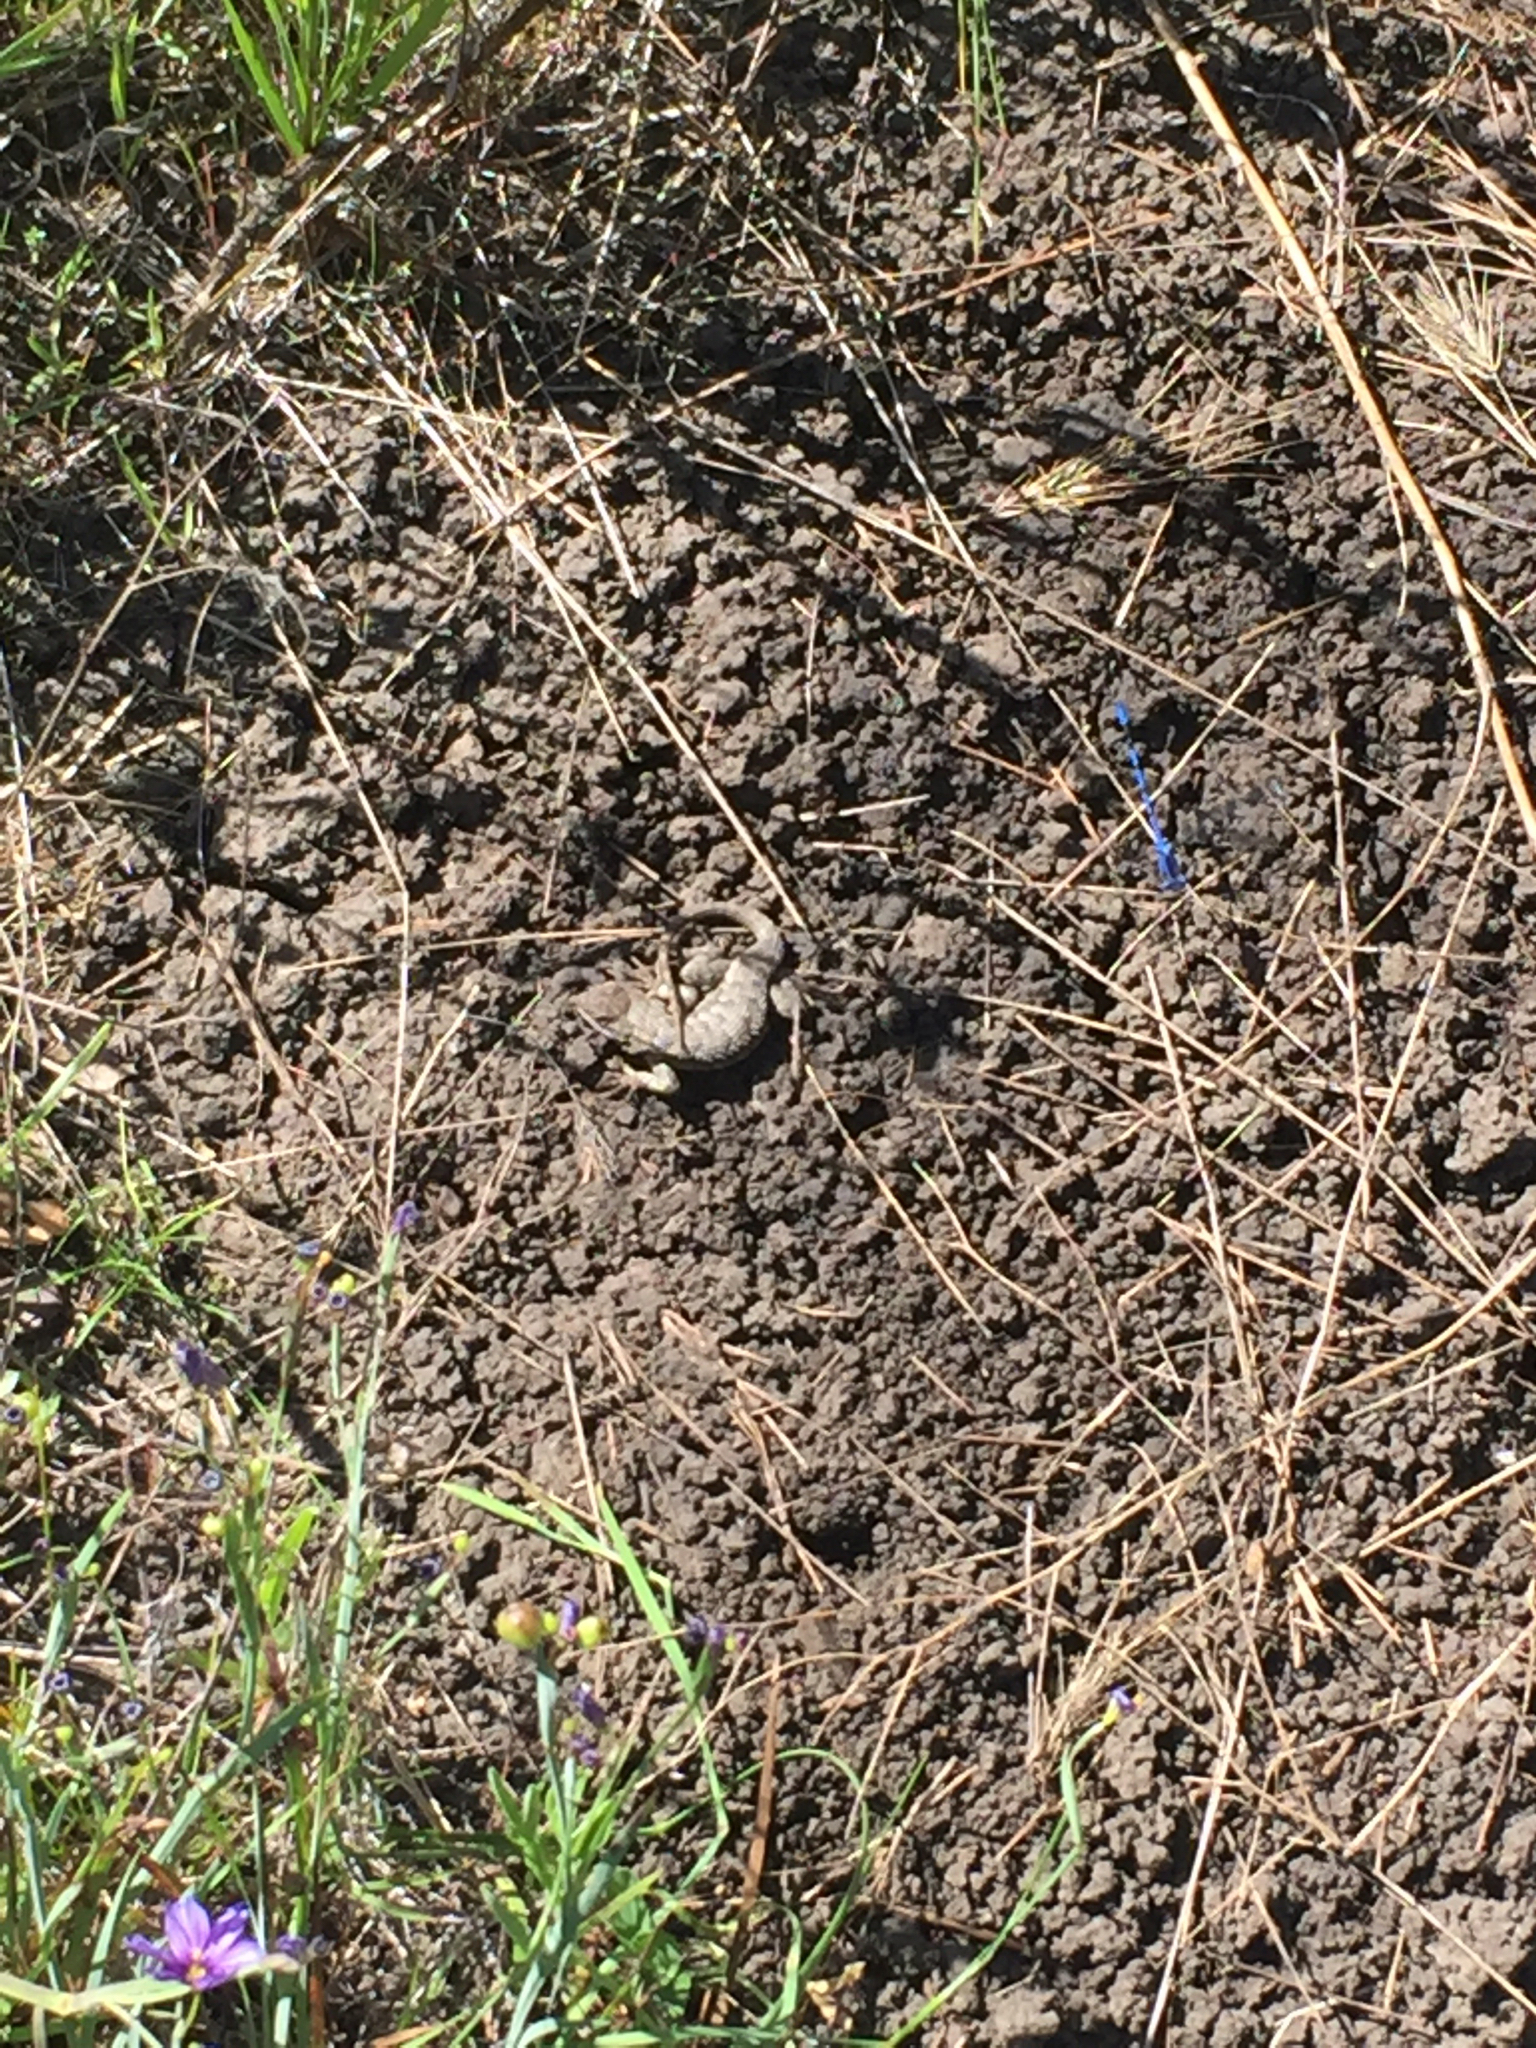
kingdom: Animalia
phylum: Chordata
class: Squamata
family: Phrynosomatidae
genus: Sceloporus
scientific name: Sceloporus occidentalis
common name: Western fence lizard
